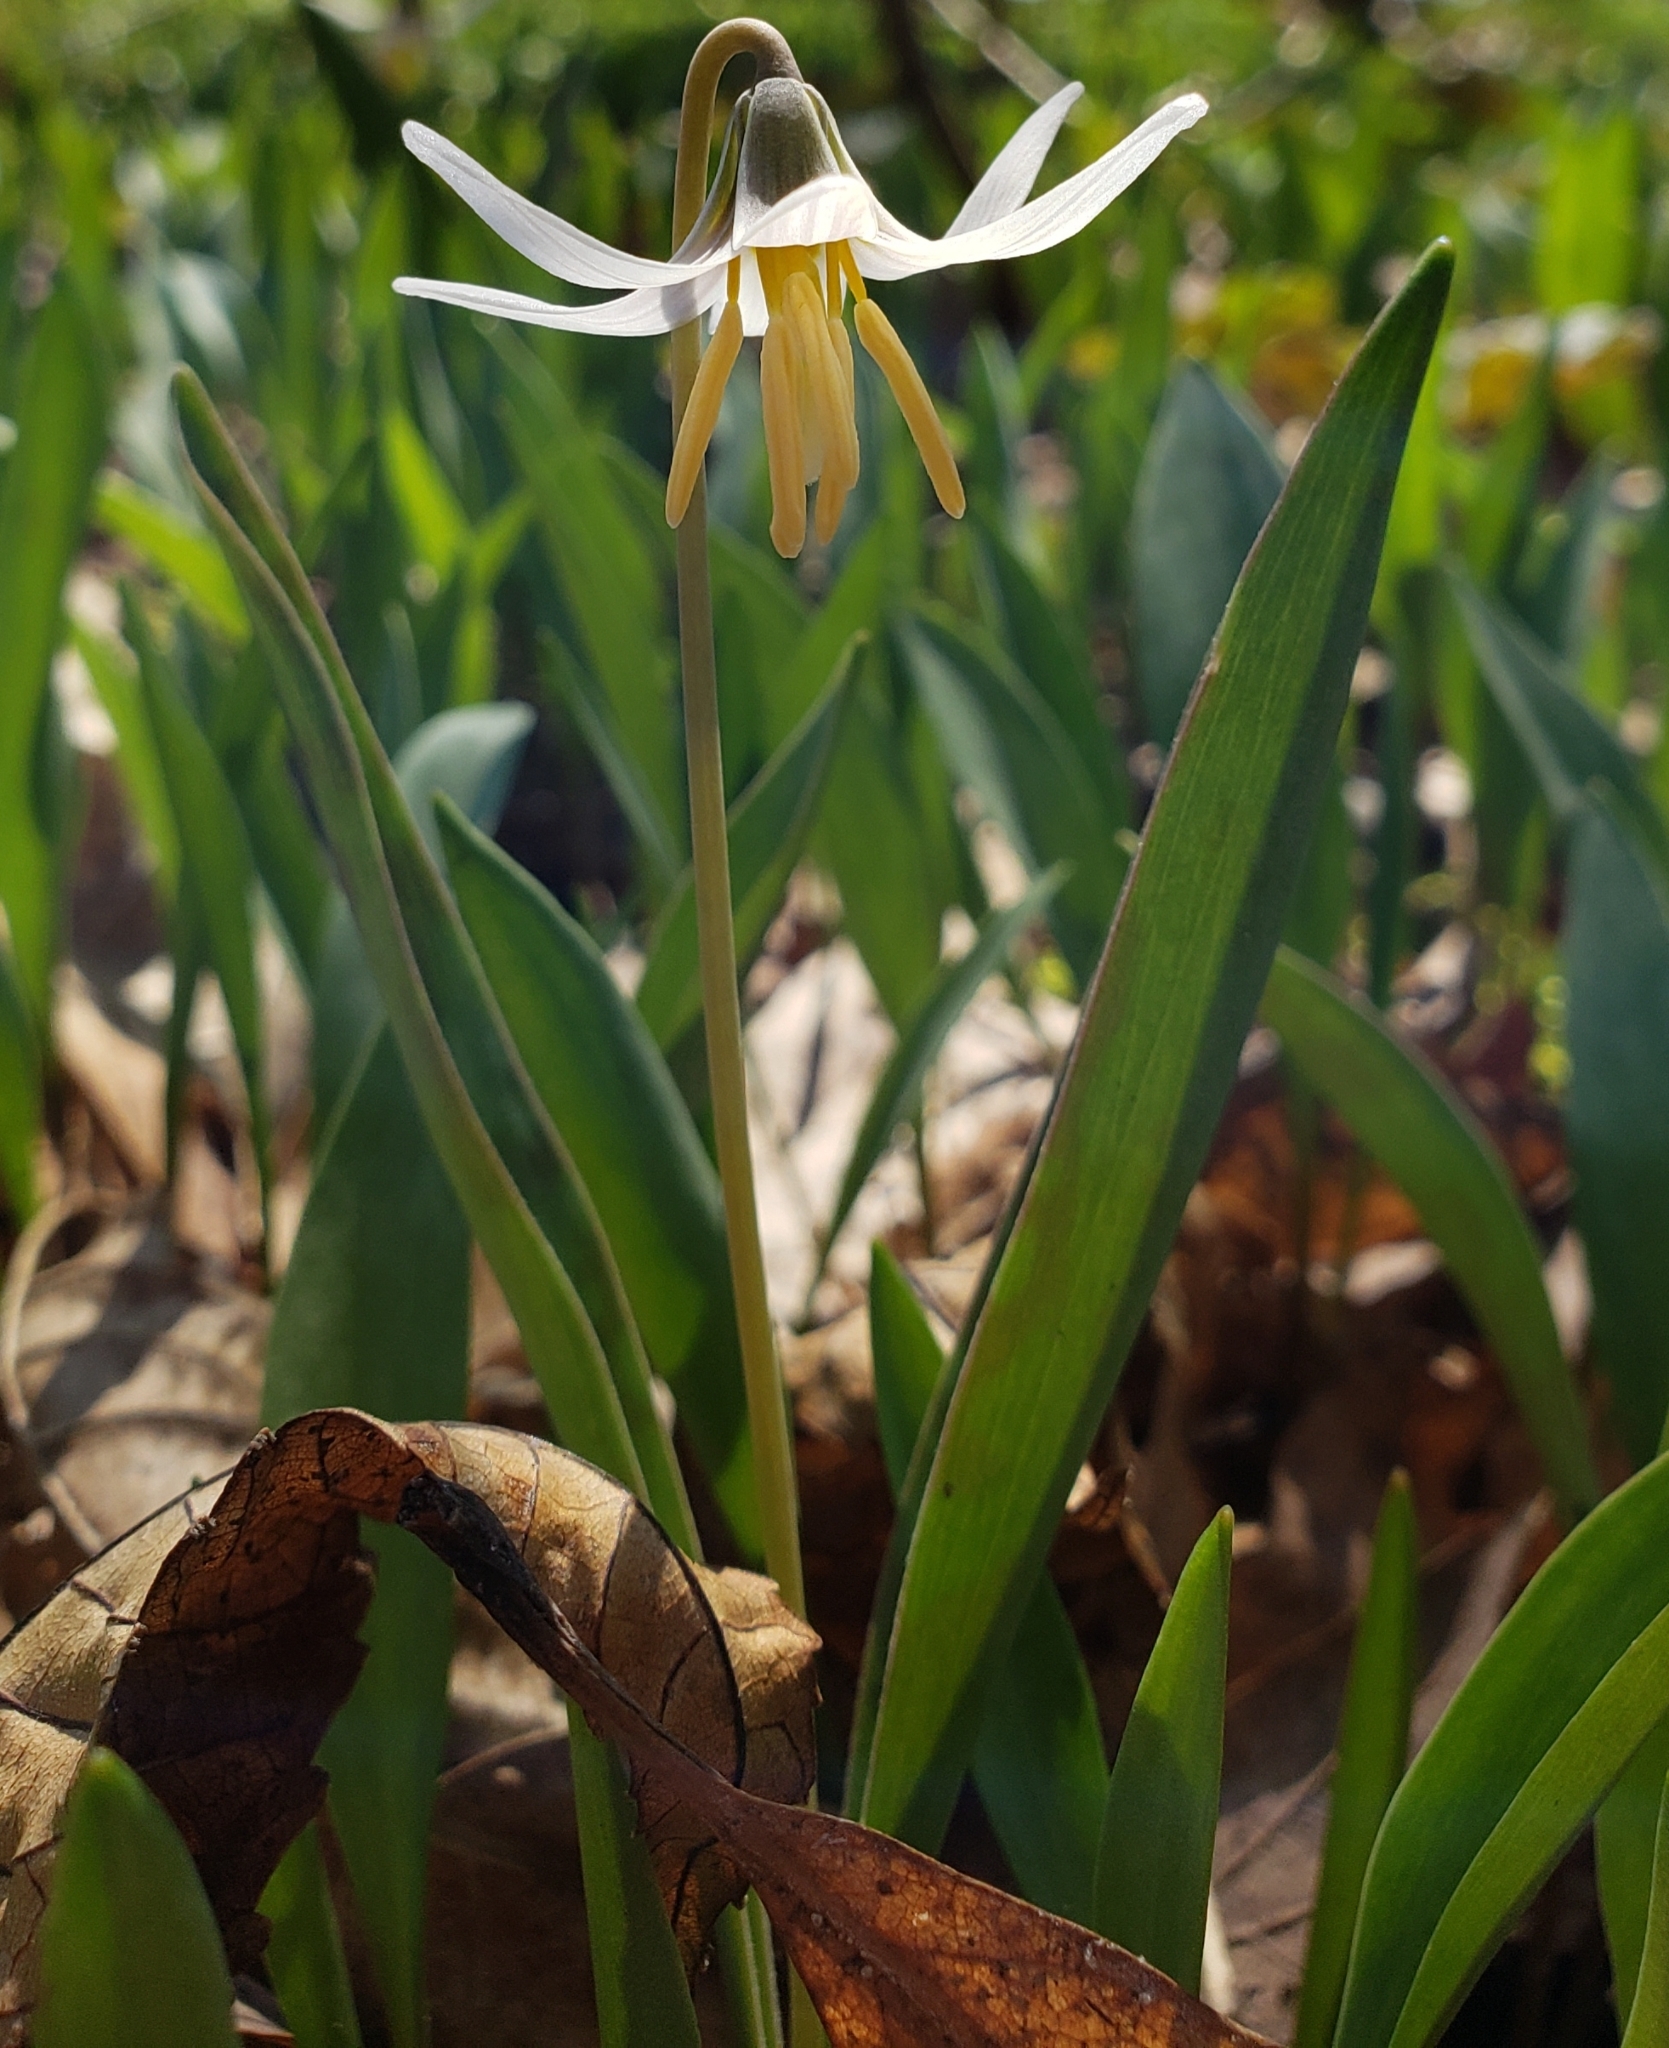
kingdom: Plantae
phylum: Tracheophyta
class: Liliopsida
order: Liliales
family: Liliaceae
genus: Erythronium
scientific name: Erythronium albidum
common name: White trout-lily
